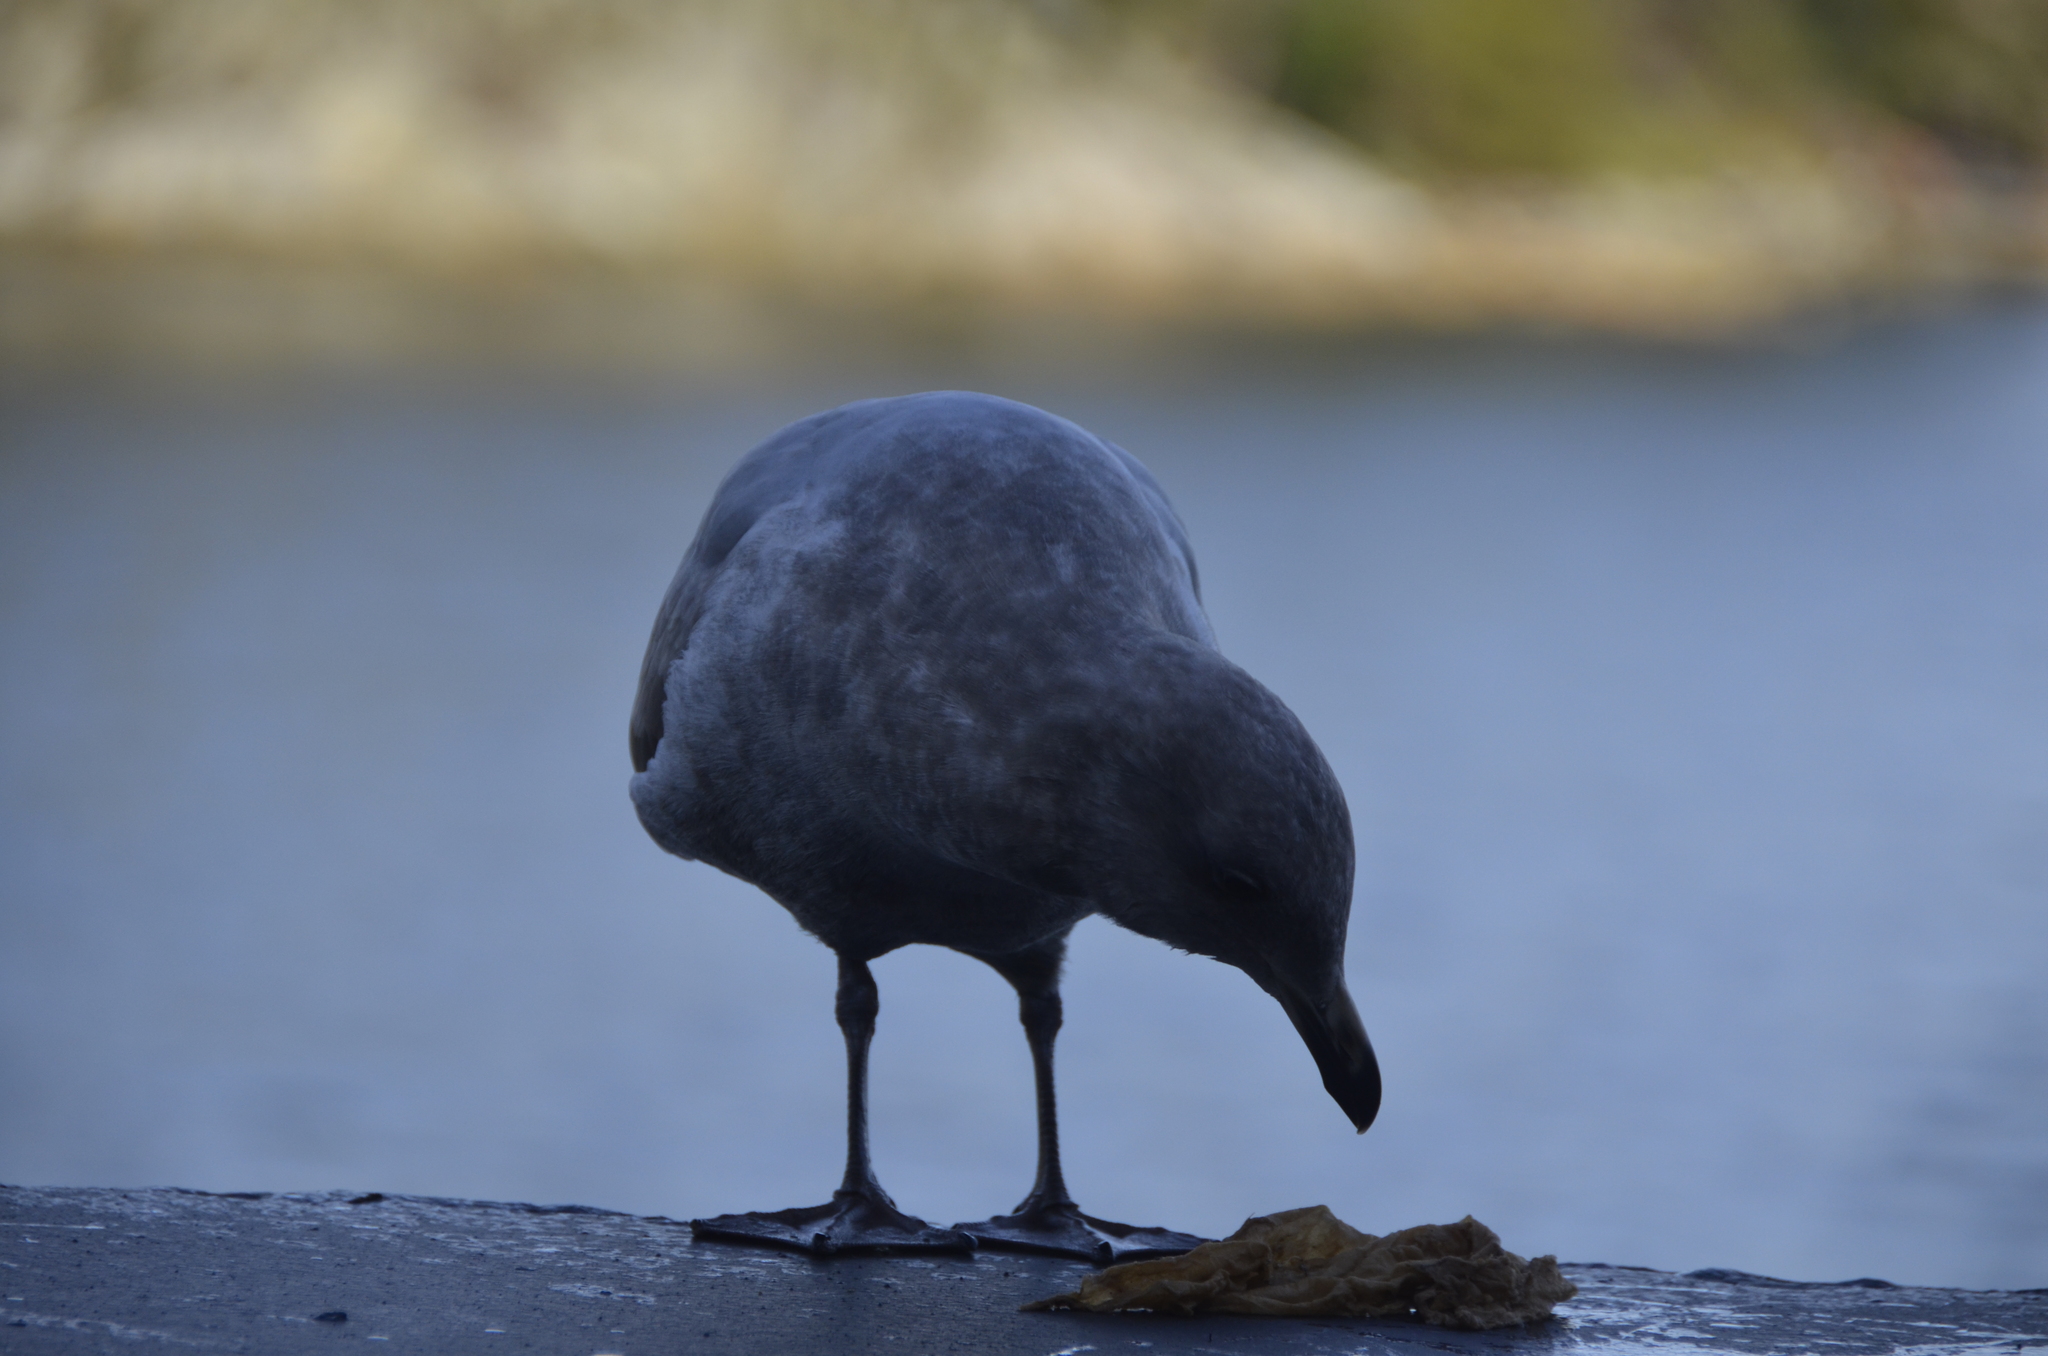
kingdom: Animalia
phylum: Chordata
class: Aves
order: Charadriiformes
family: Laridae
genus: Larus
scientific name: Larus
